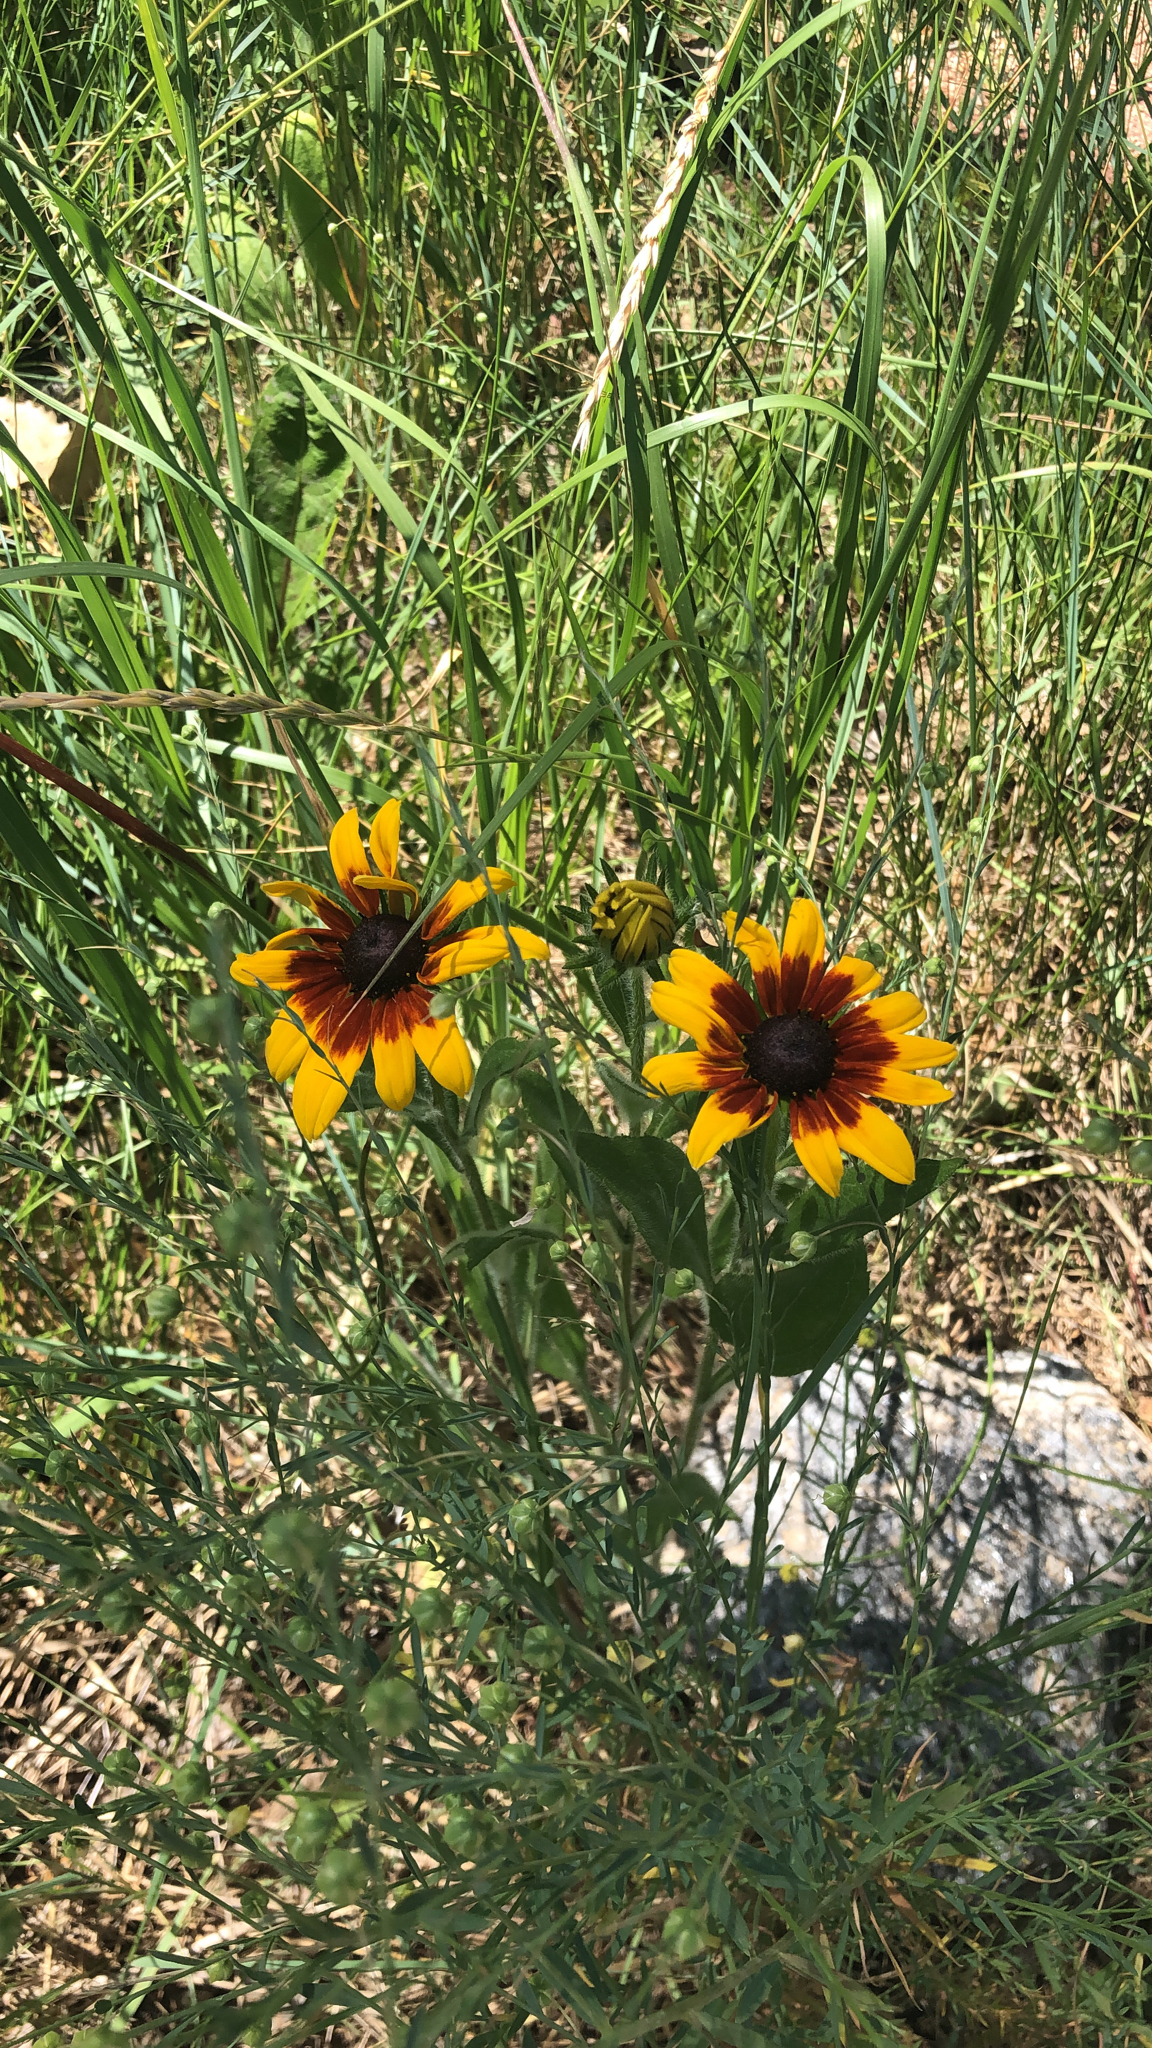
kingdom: Plantae
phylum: Tracheophyta
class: Magnoliopsida
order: Asterales
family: Asteraceae
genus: Rudbeckia
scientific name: Rudbeckia hirta
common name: Black-eyed-susan
